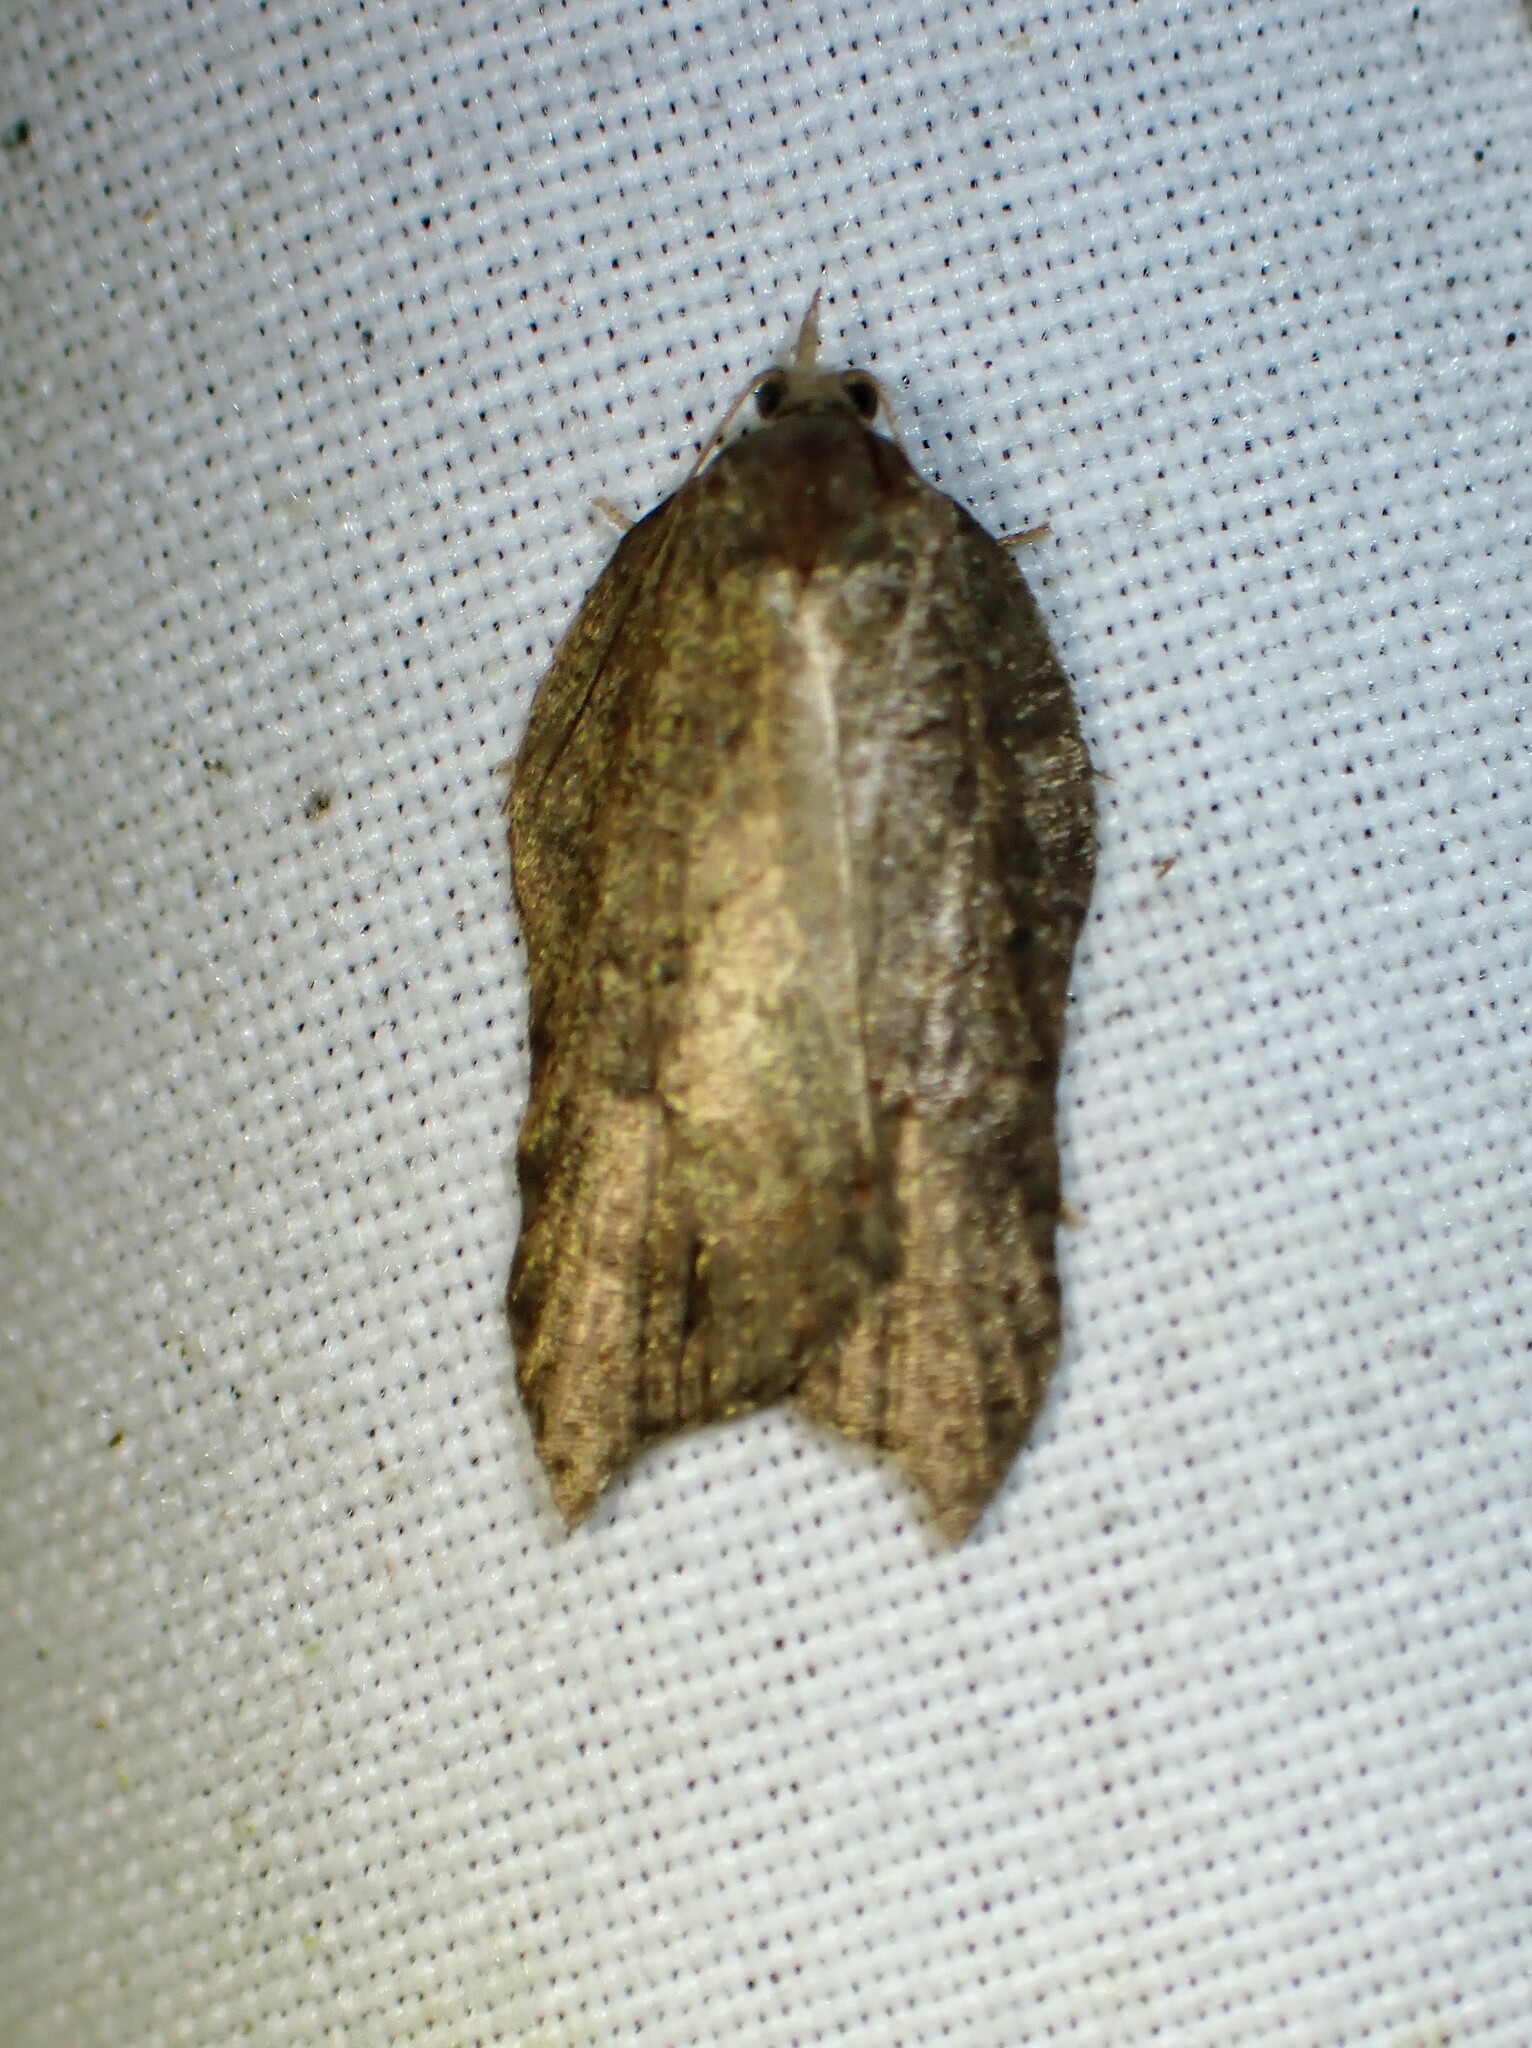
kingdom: Animalia
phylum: Arthropoda
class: Insecta
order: Lepidoptera
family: Tortricidae
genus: Acleris
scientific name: Acleris effractana
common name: Hook-winged tortrix moth
